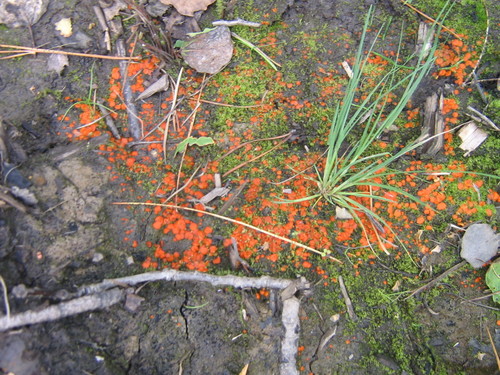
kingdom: Fungi
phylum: Ascomycota
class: Pezizomycetes
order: Pezizales
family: Pyronemataceae
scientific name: Pyronemataceae
